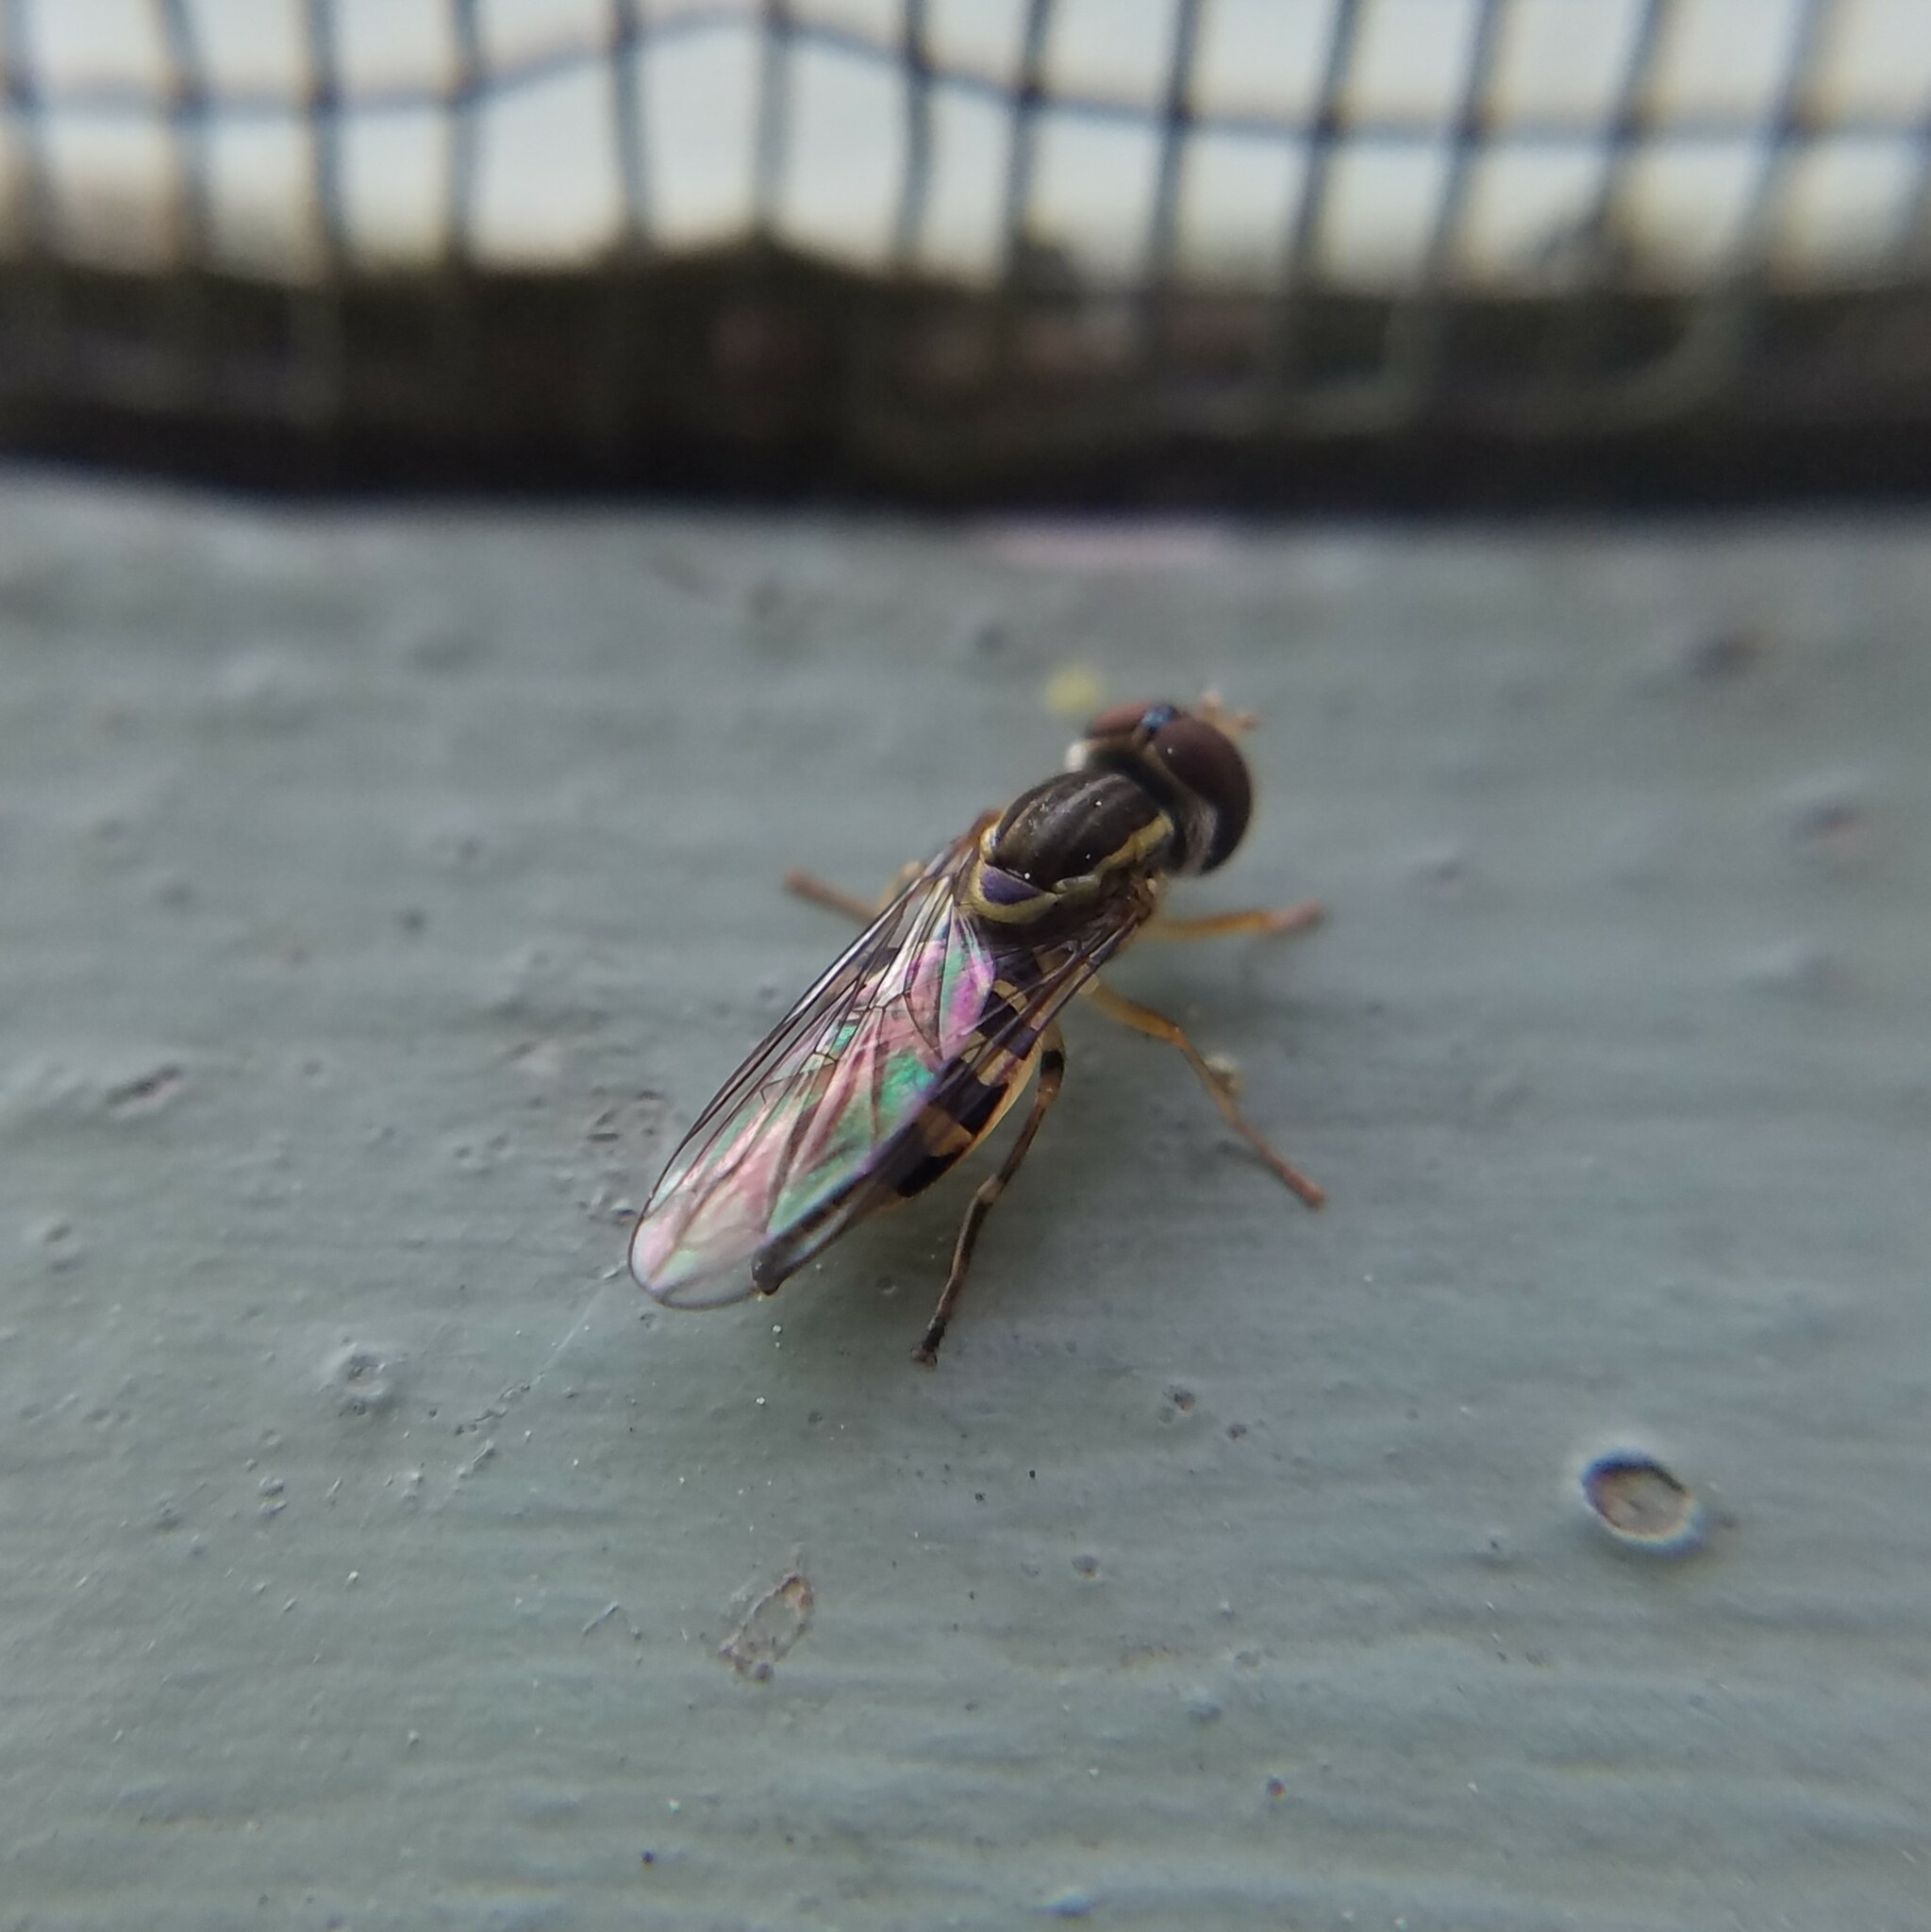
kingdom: Animalia
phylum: Arthropoda
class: Insecta
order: Diptera
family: Syrphidae
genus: Toxomerus
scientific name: Toxomerus geminatus
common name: Eastern calligrapher
